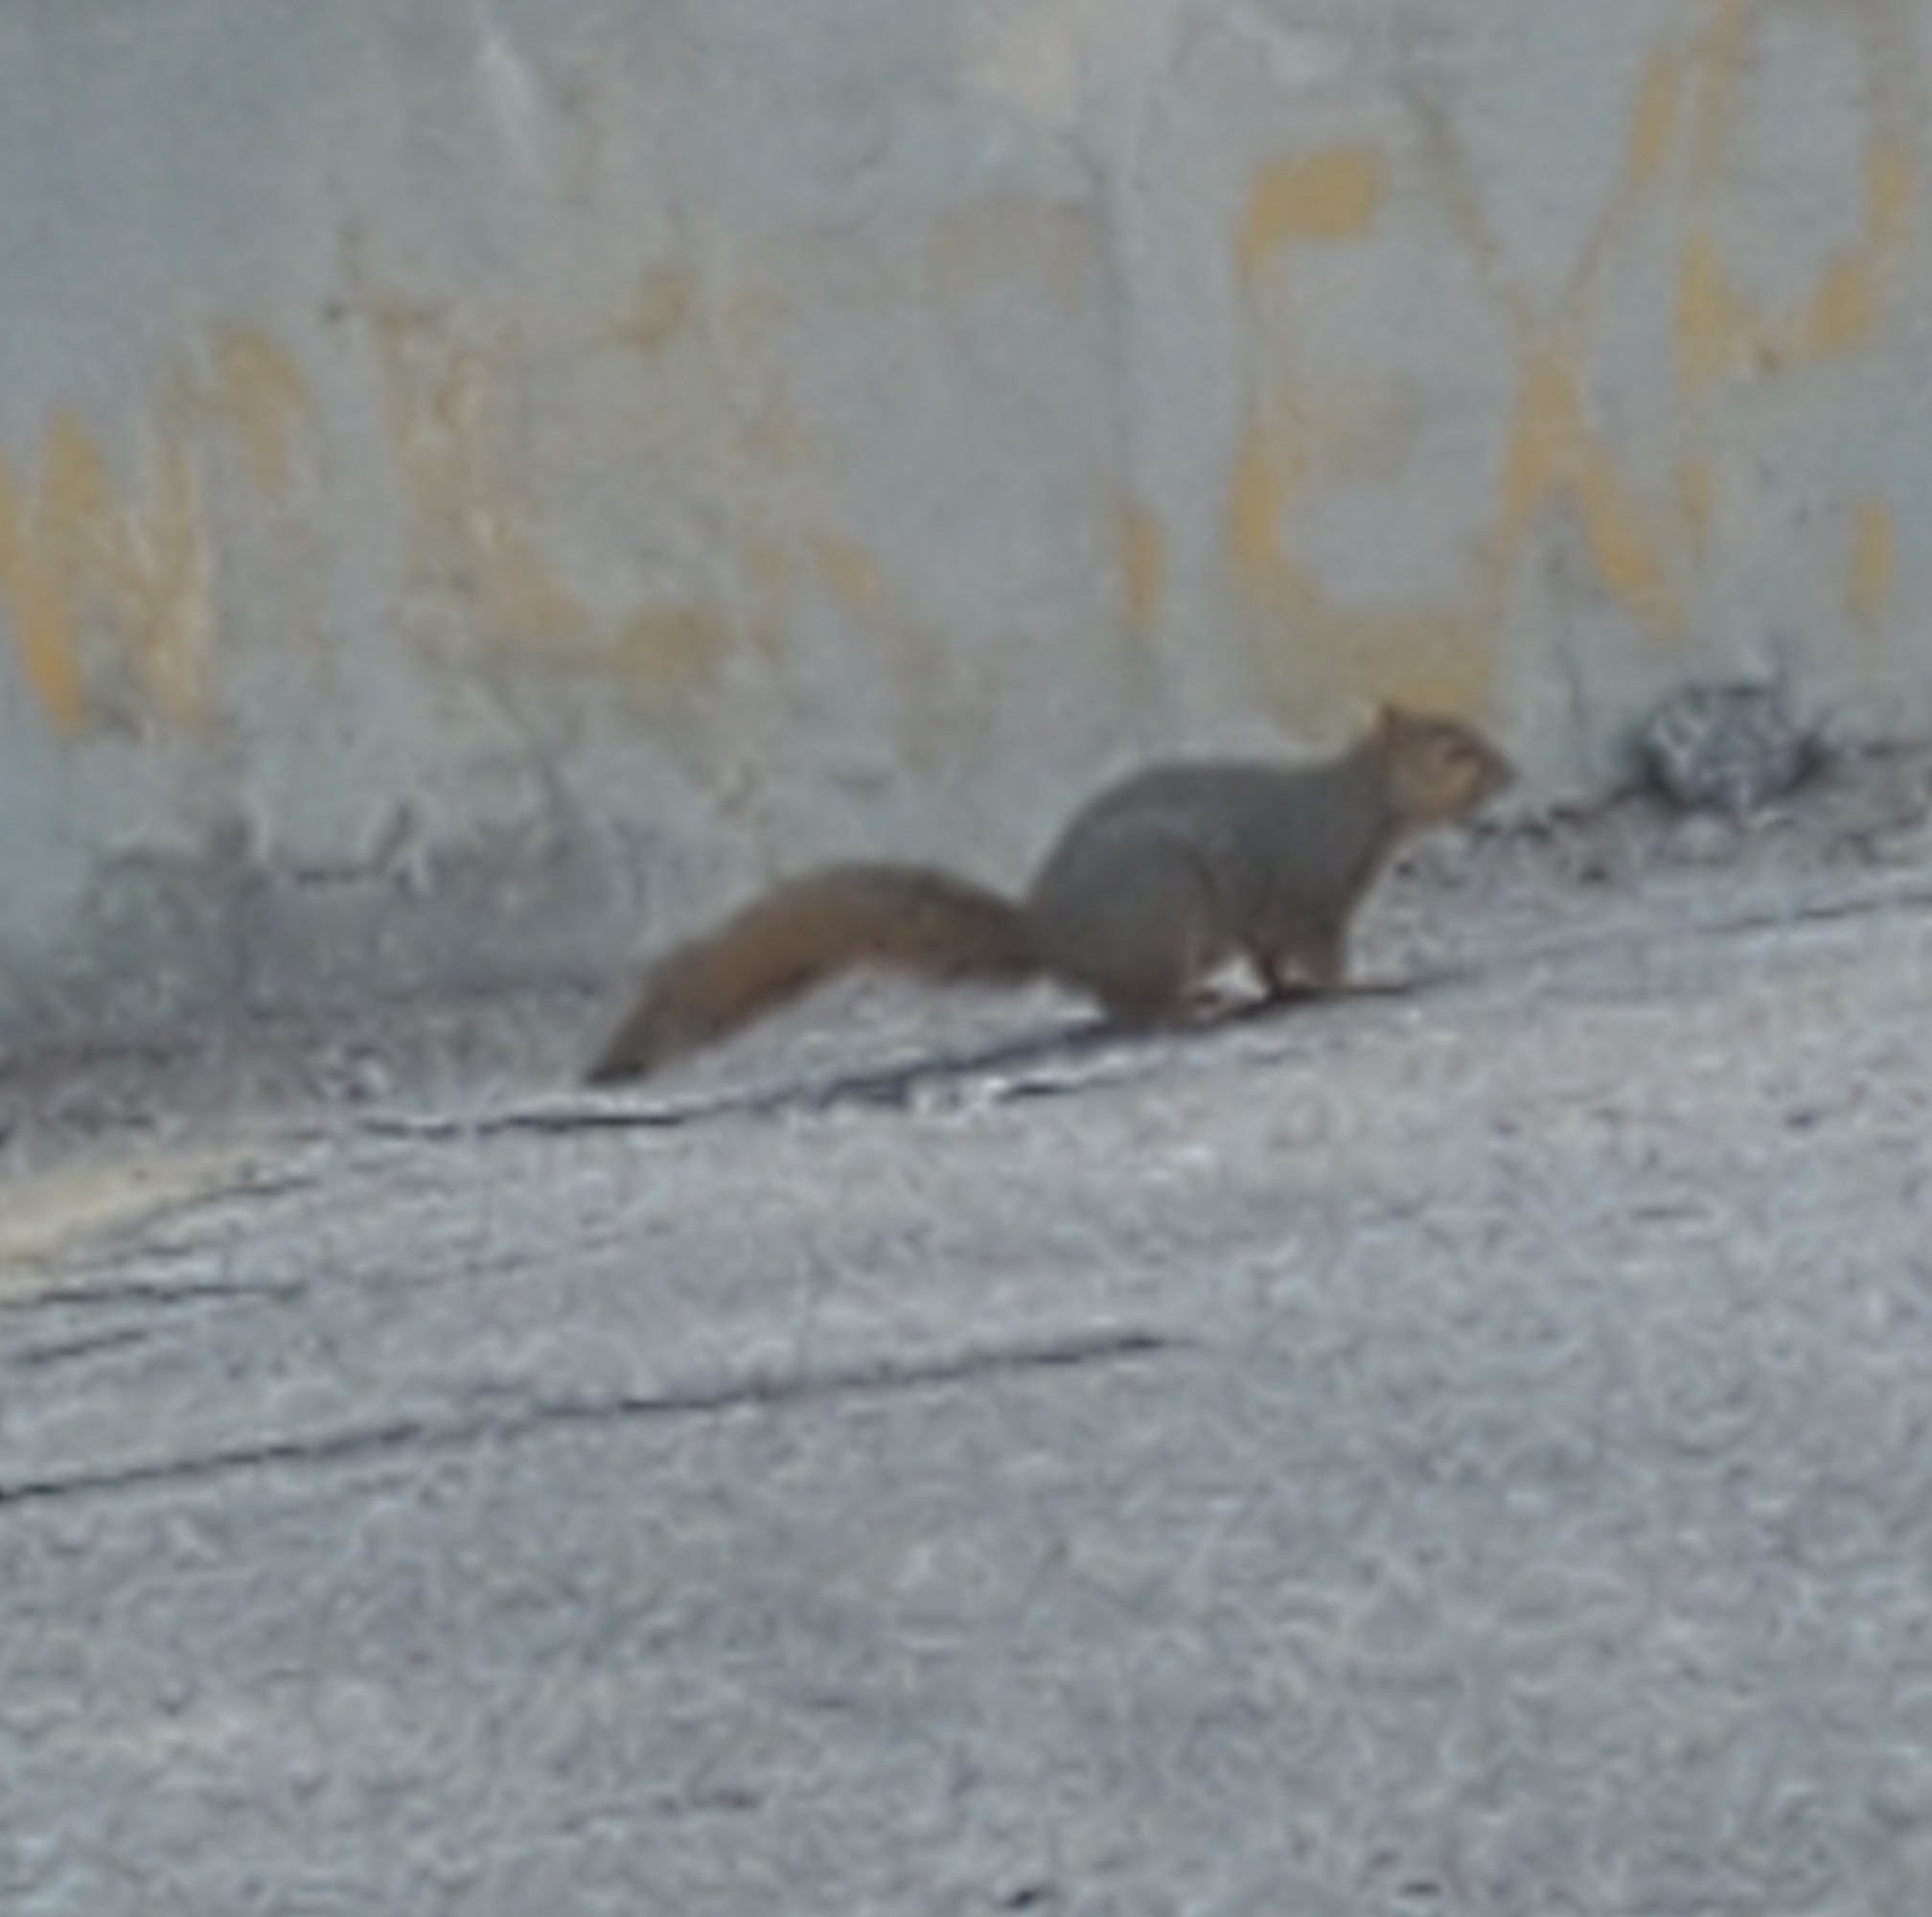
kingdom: Animalia
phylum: Chordata
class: Mammalia
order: Rodentia
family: Sciuridae
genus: Sciurus
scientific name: Sciurus niger
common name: Fox squirrel
